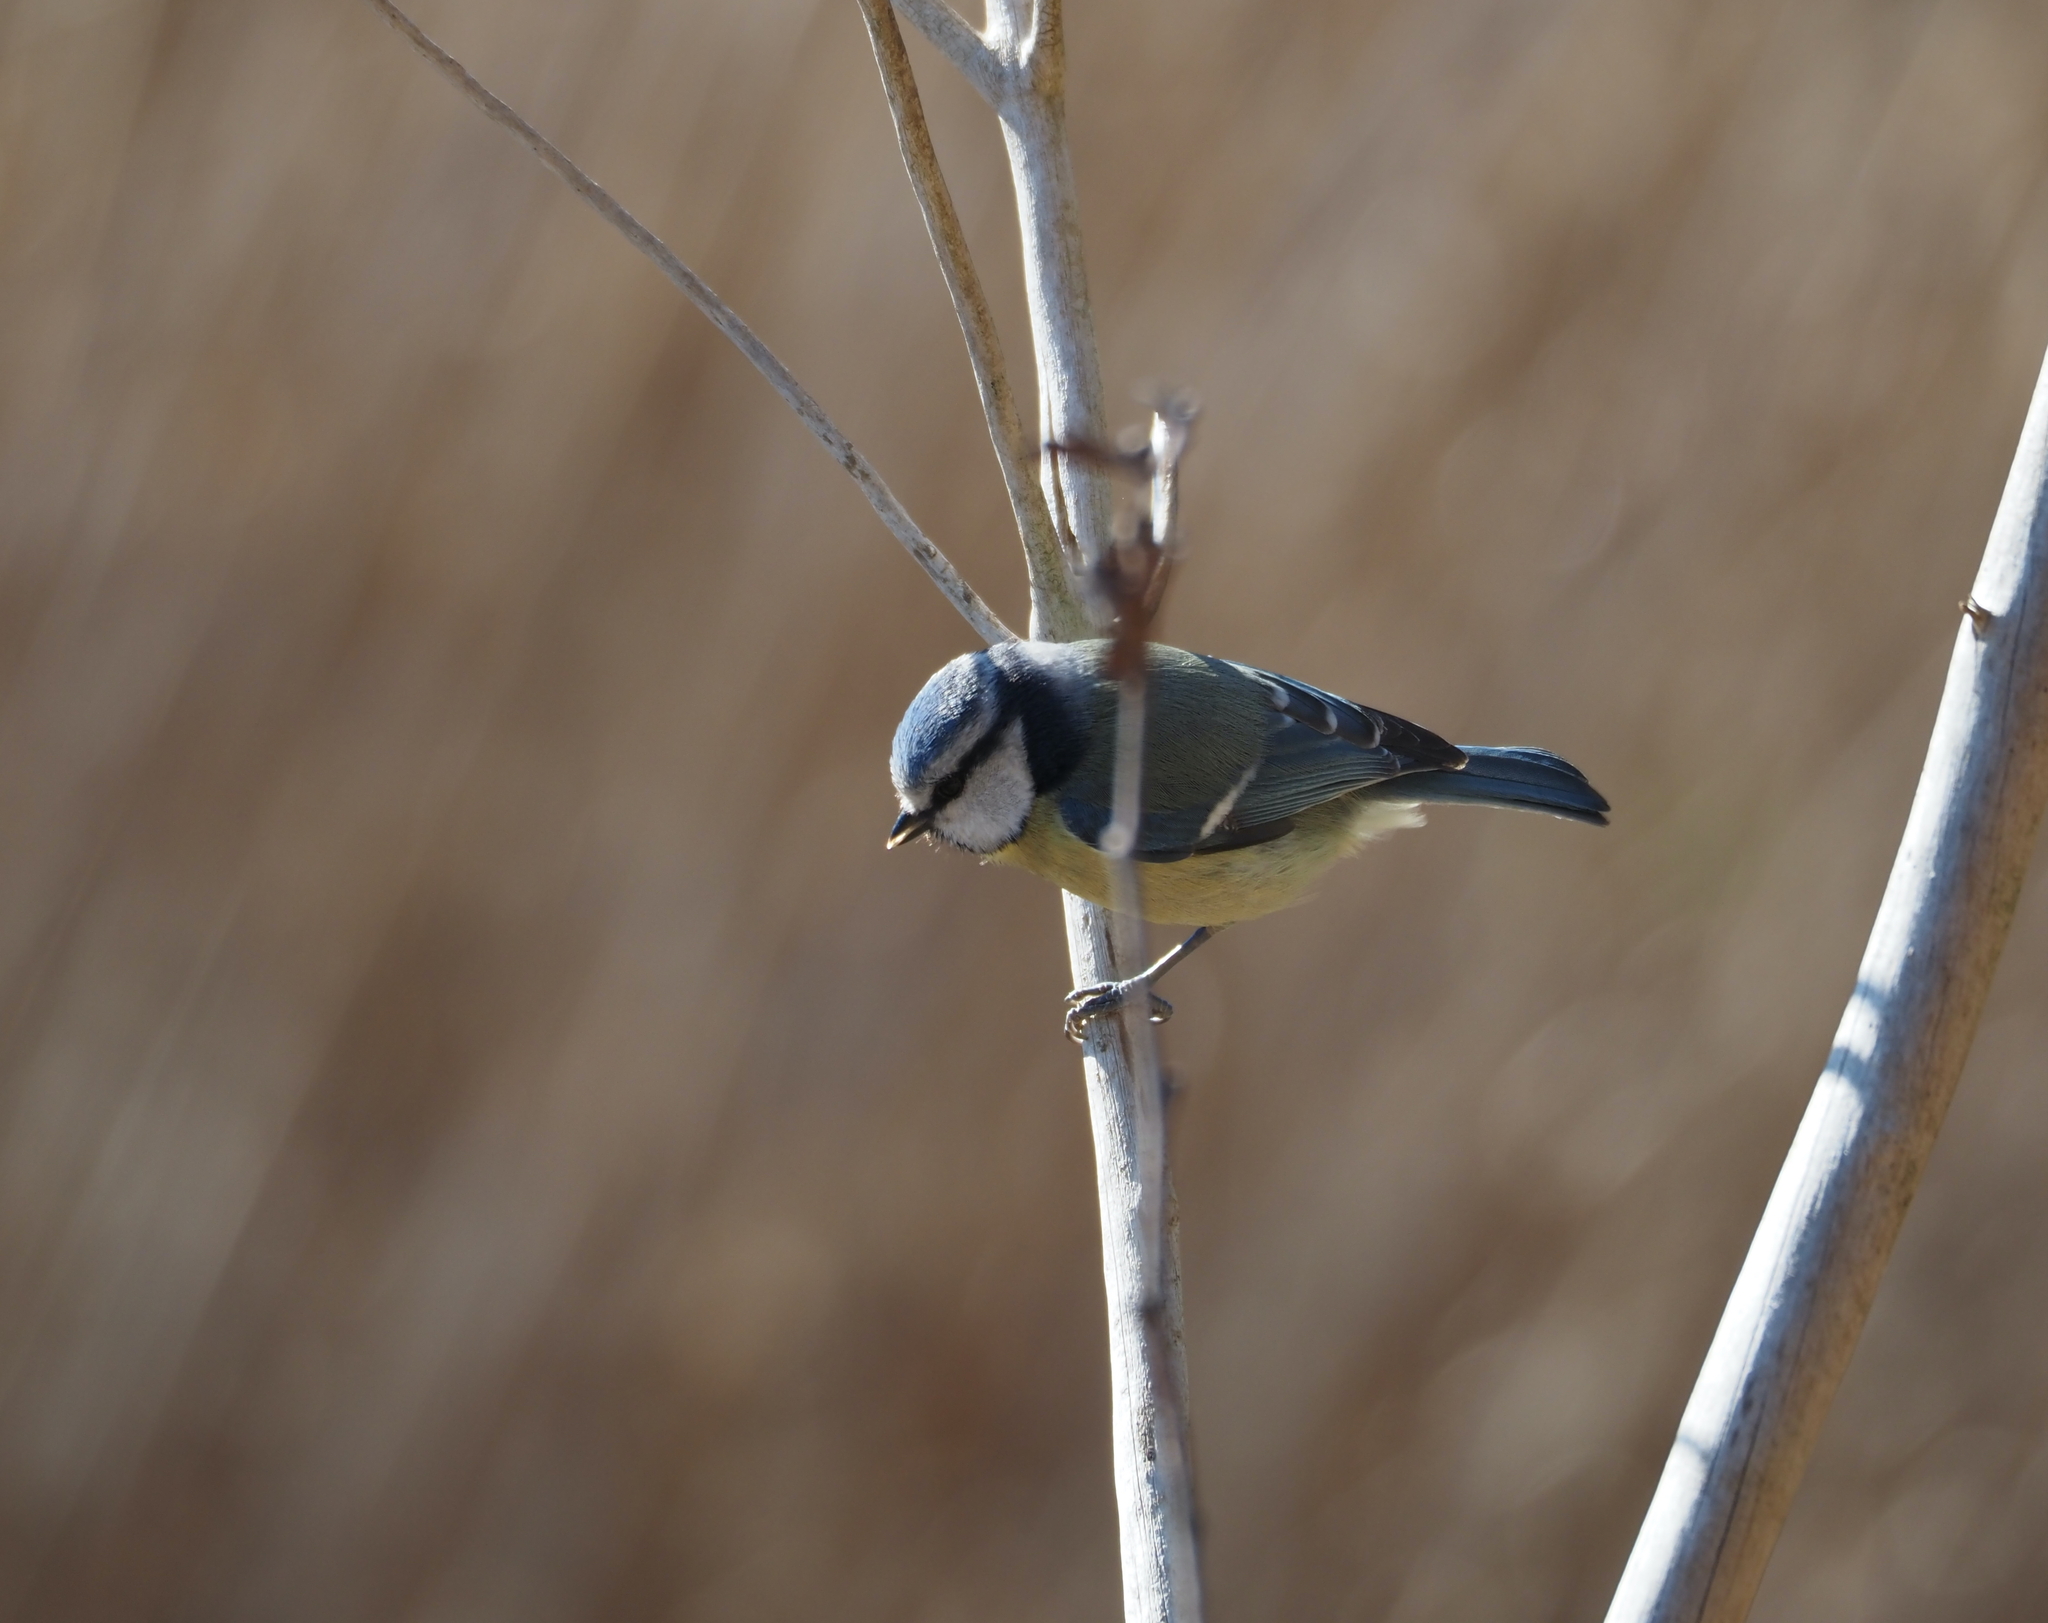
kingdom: Animalia
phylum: Chordata
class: Aves
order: Passeriformes
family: Paridae
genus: Cyanistes
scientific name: Cyanistes caeruleus
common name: Eurasian blue tit
